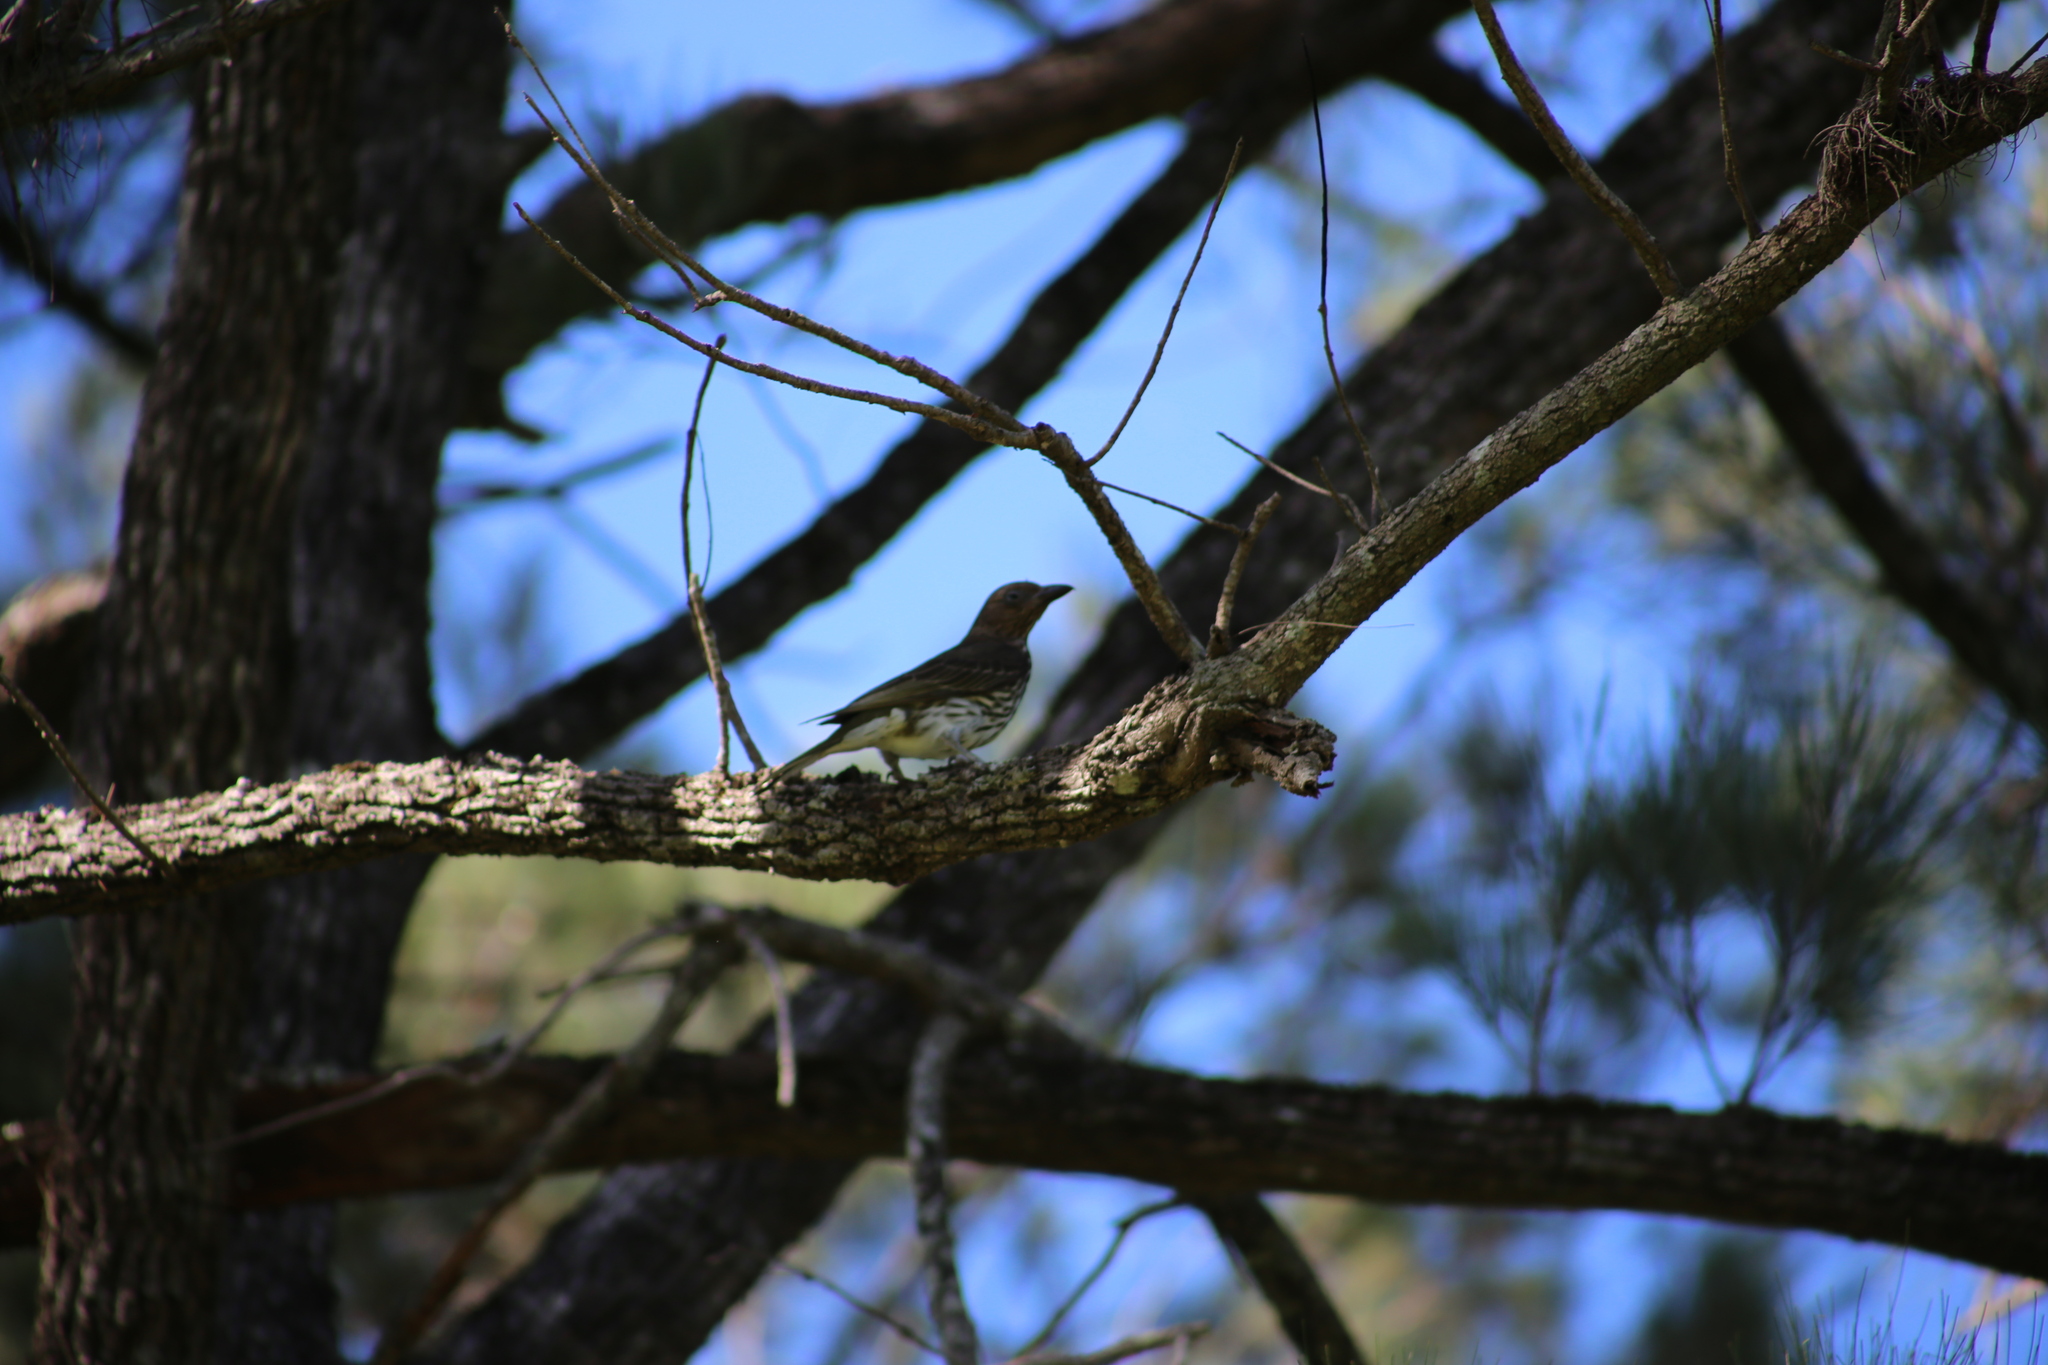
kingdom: Animalia
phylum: Chordata
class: Aves
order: Passeriformes
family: Oriolidae
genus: Sphecotheres
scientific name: Sphecotheres vieilloti
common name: Australasian figbird
